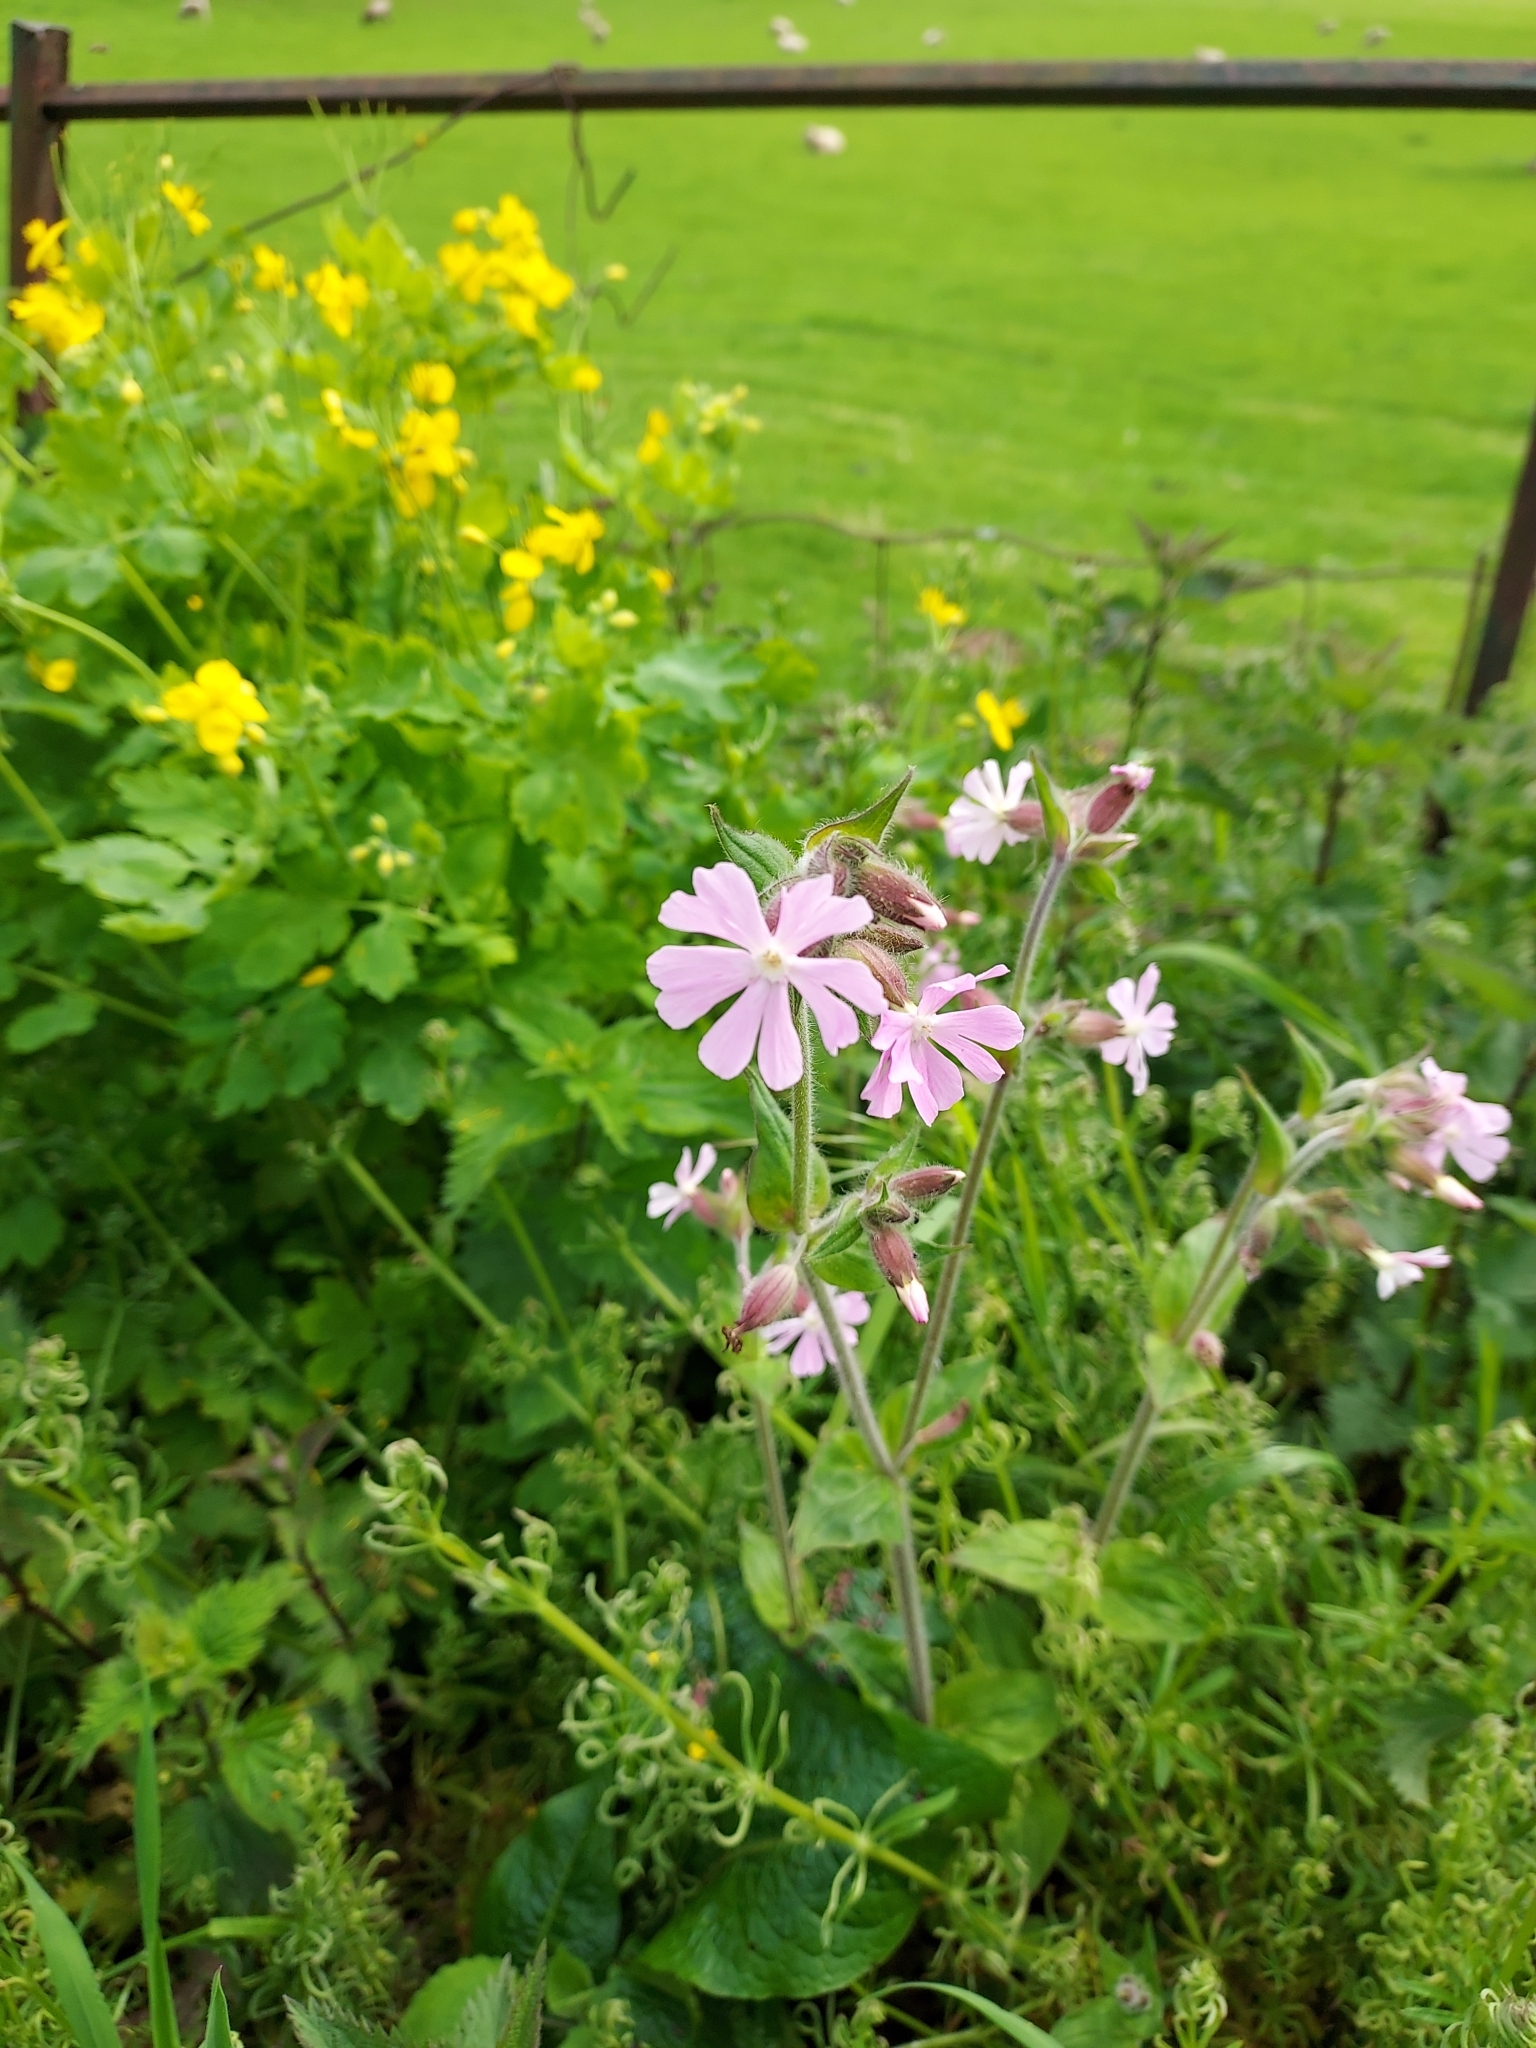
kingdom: Plantae
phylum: Tracheophyta
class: Magnoliopsida
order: Caryophyllales
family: Caryophyllaceae
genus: Silene
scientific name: Silene dioica
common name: Red campion
